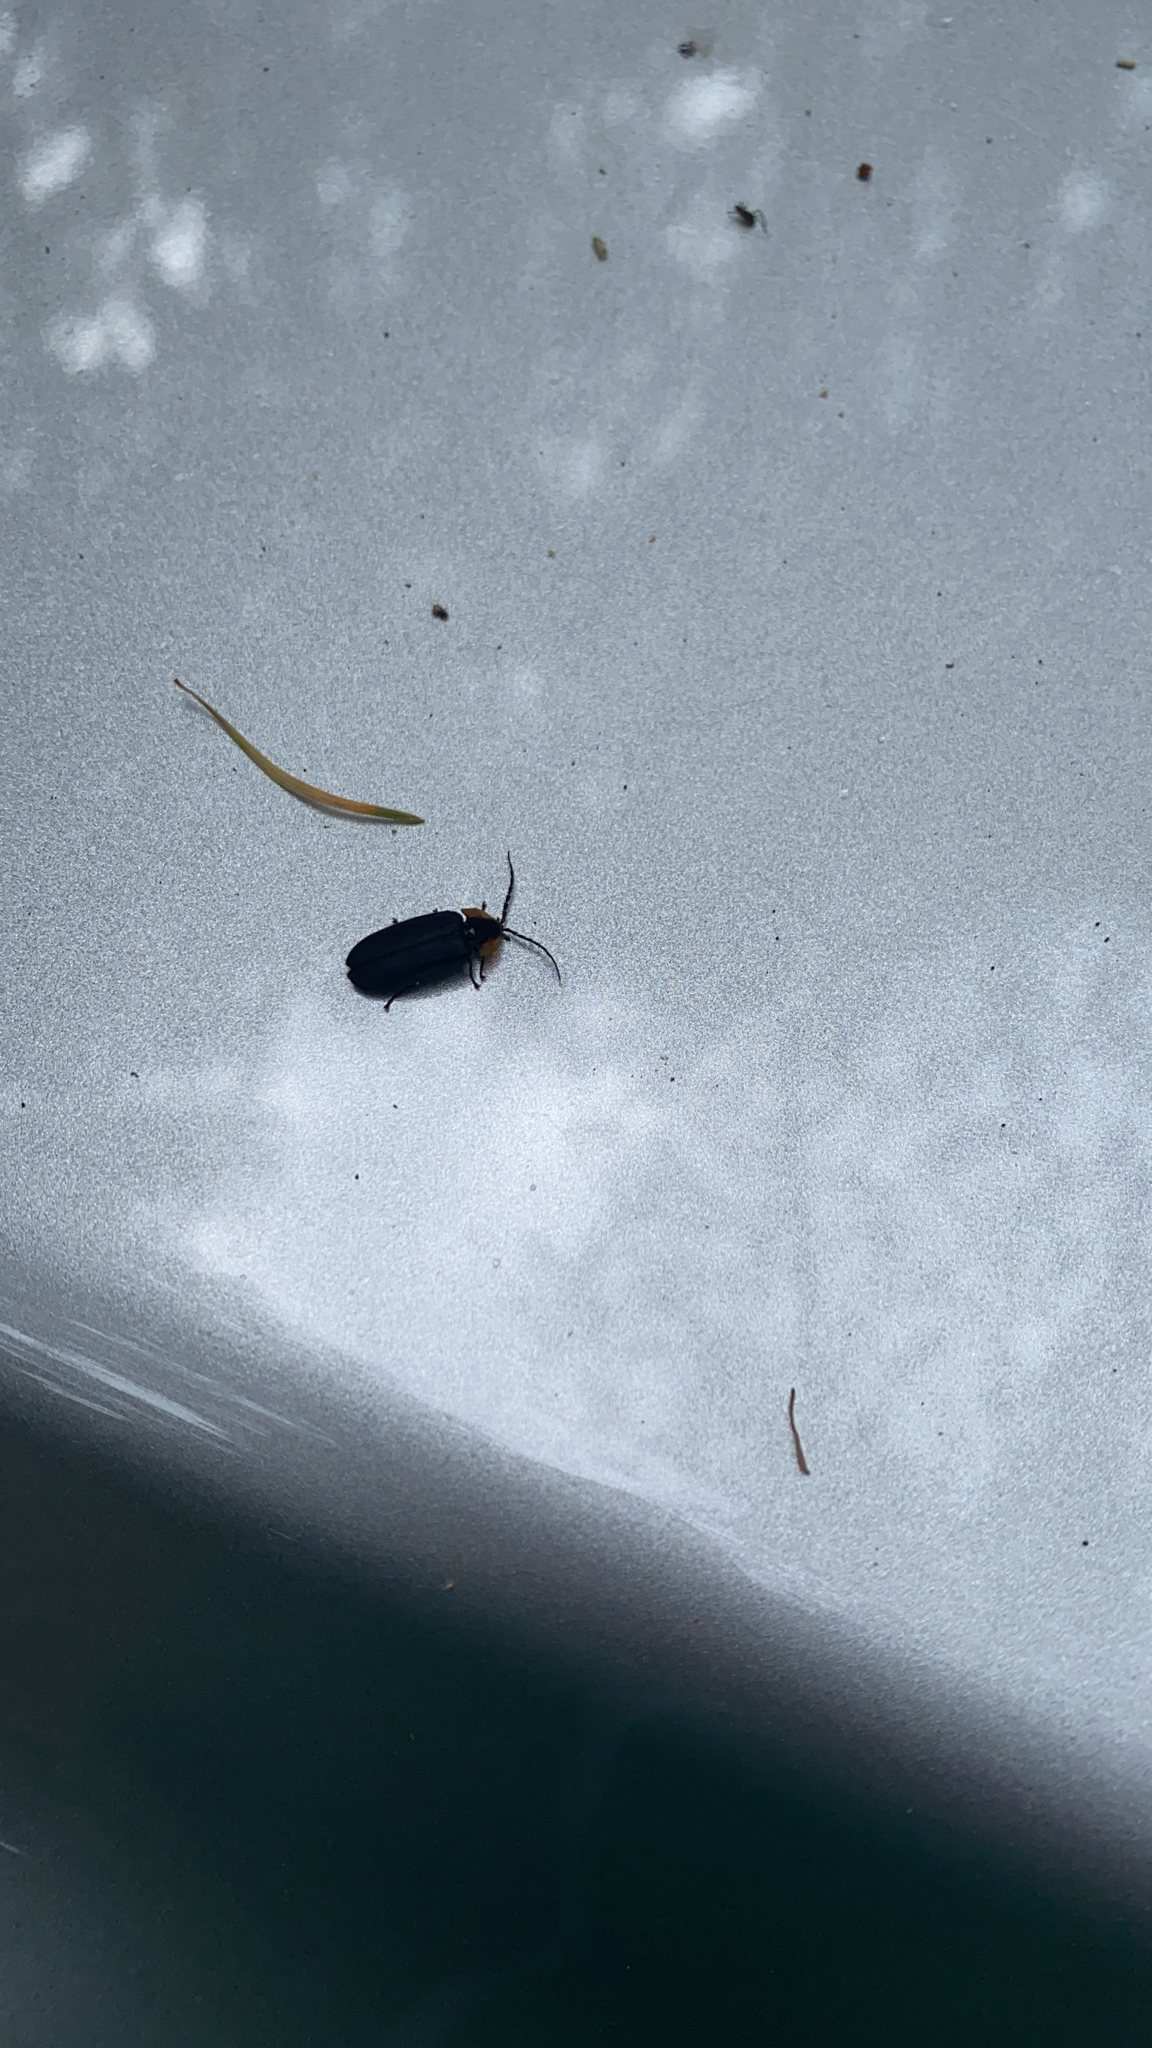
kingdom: Animalia
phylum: Arthropoda
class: Insecta
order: Coleoptera
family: Lampyridae
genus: Lucidota
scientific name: Lucidota atra
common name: Black firefly
